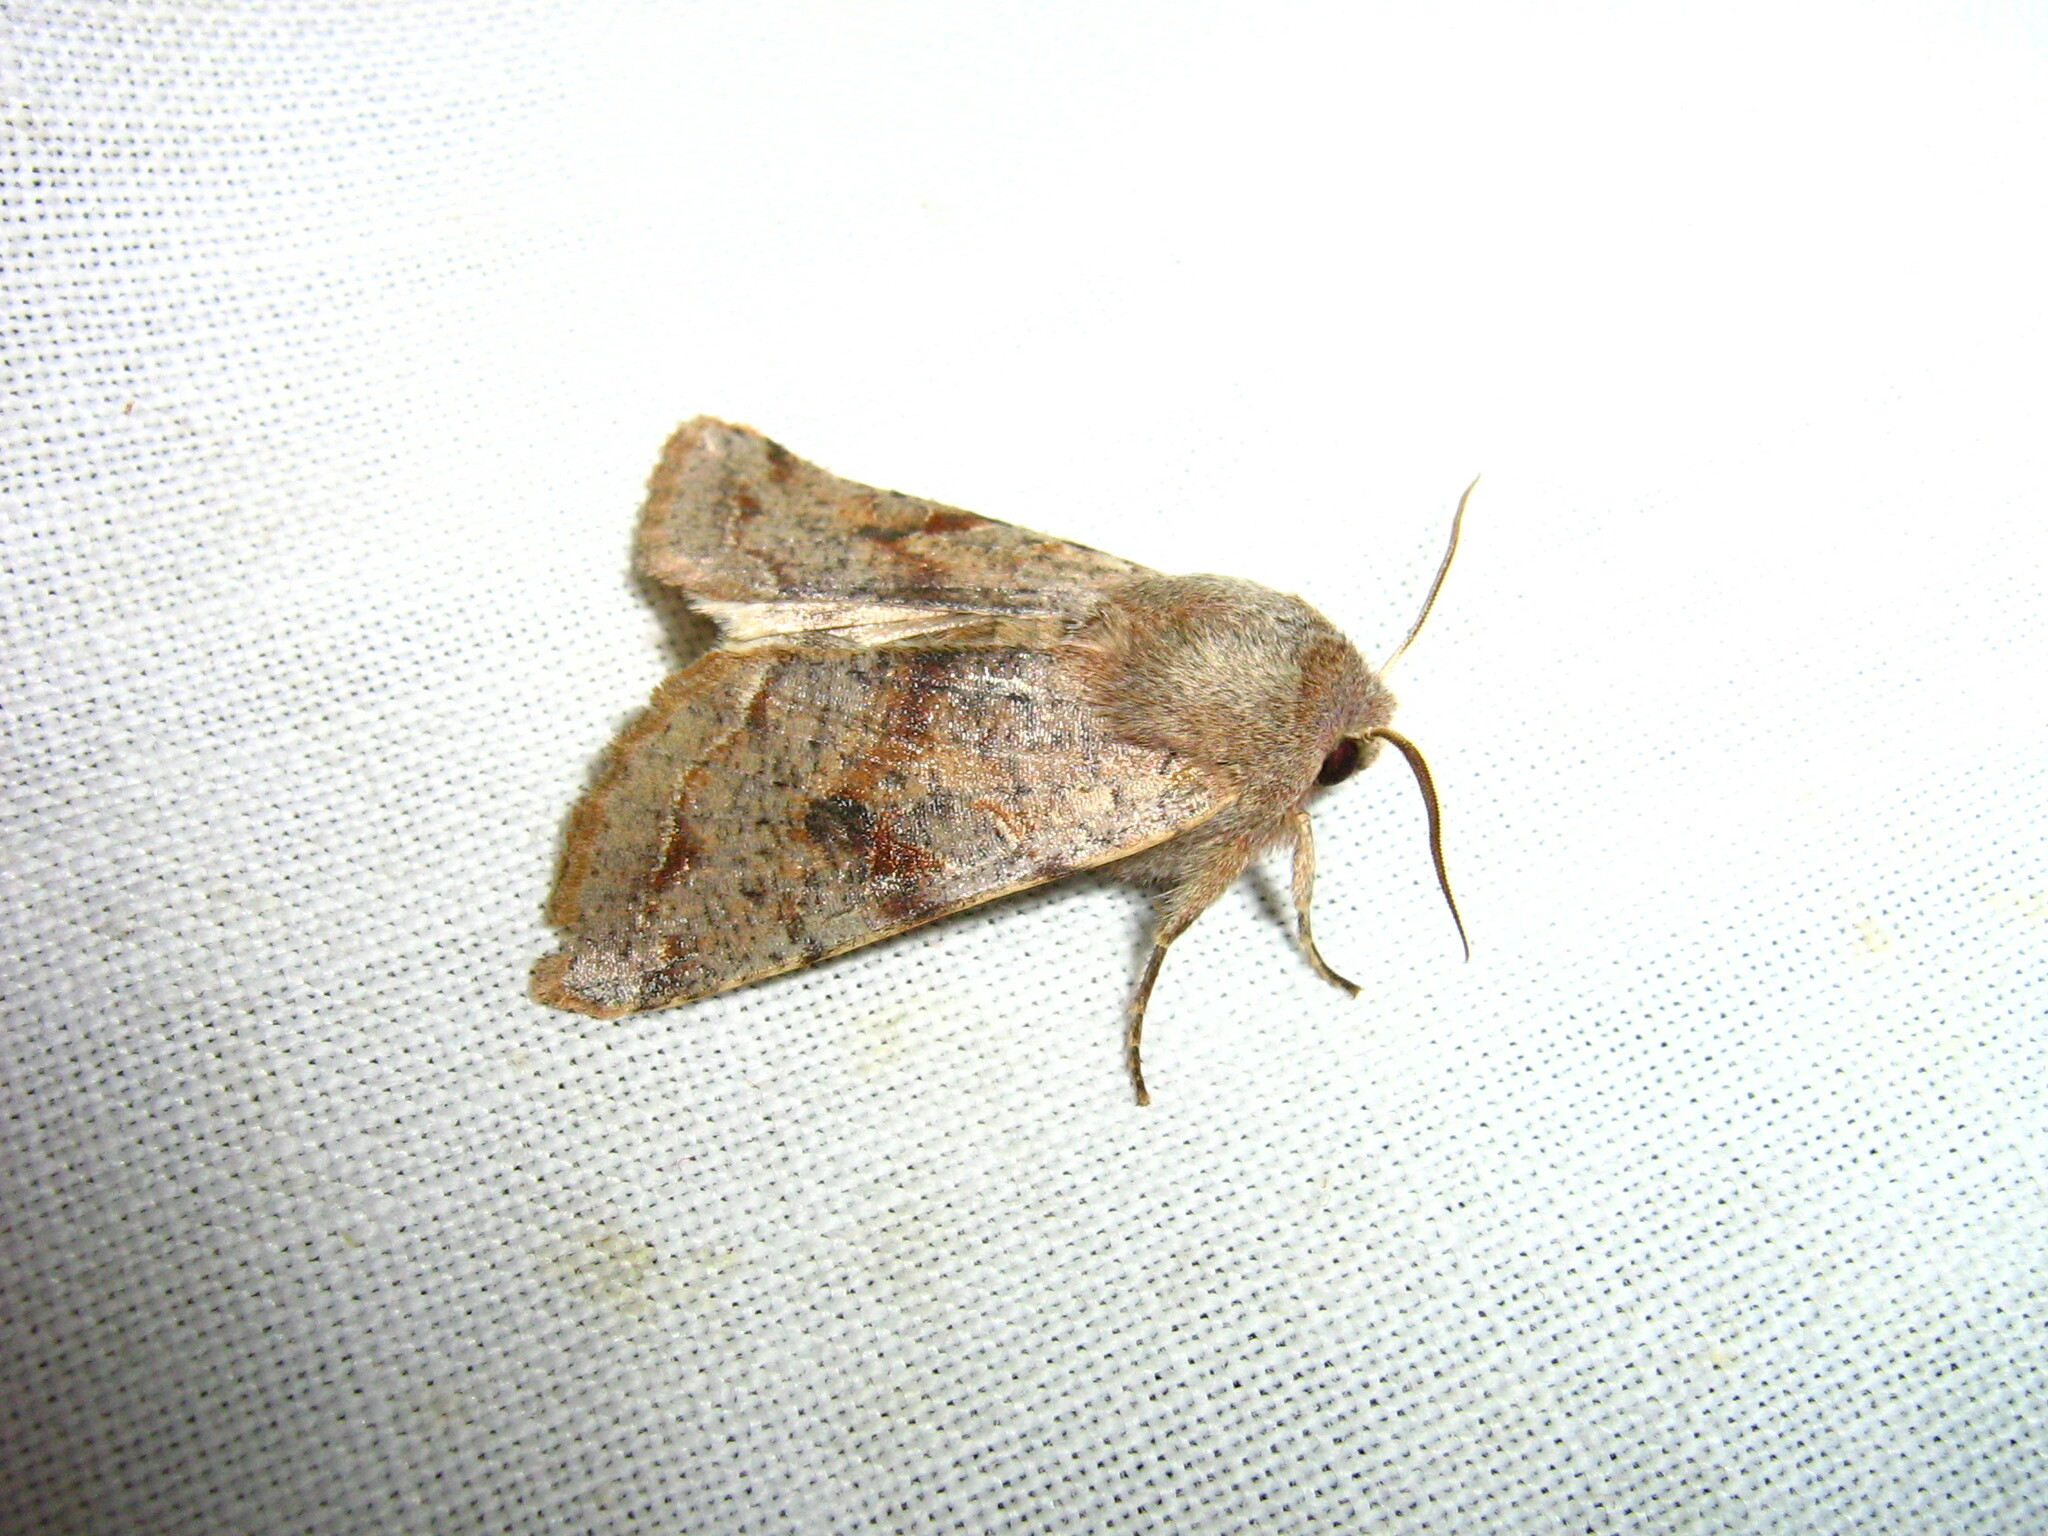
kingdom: Animalia
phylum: Arthropoda
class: Insecta
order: Lepidoptera
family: Noctuidae
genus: Orthosia
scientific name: Orthosia incerta
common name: Clouded drab
